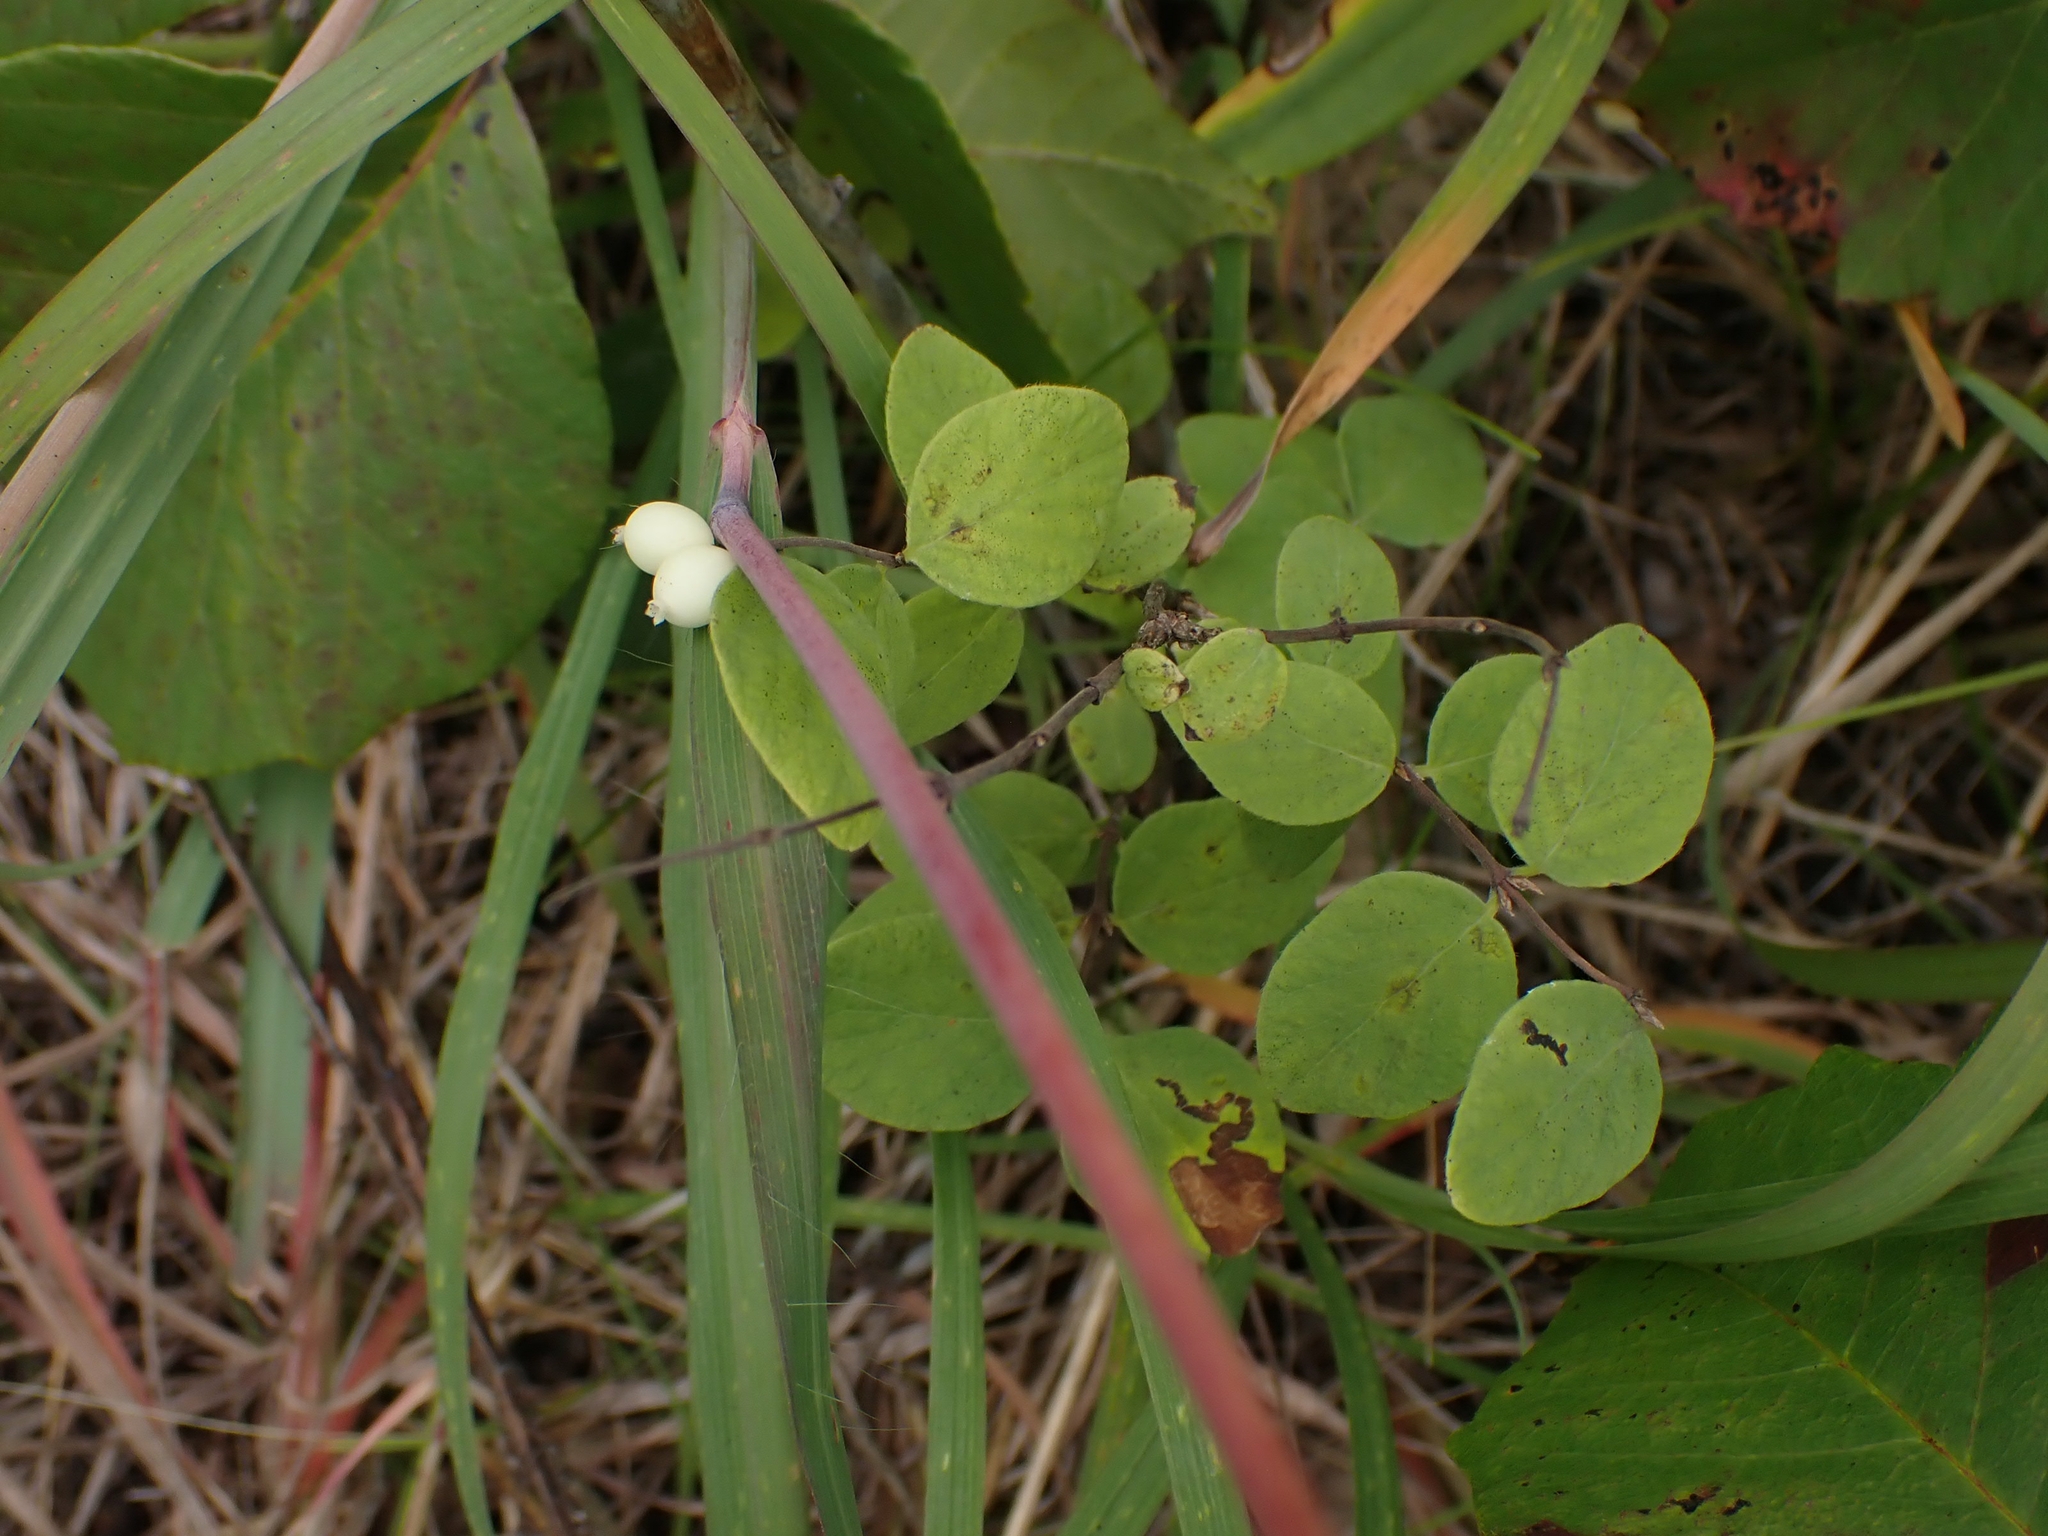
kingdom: Plantae
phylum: Tracheophyta
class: Magnoliopsida
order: Dipsacales
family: Caprifoliaceae
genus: Symphoricarpos
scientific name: Symphoricarpos albus
